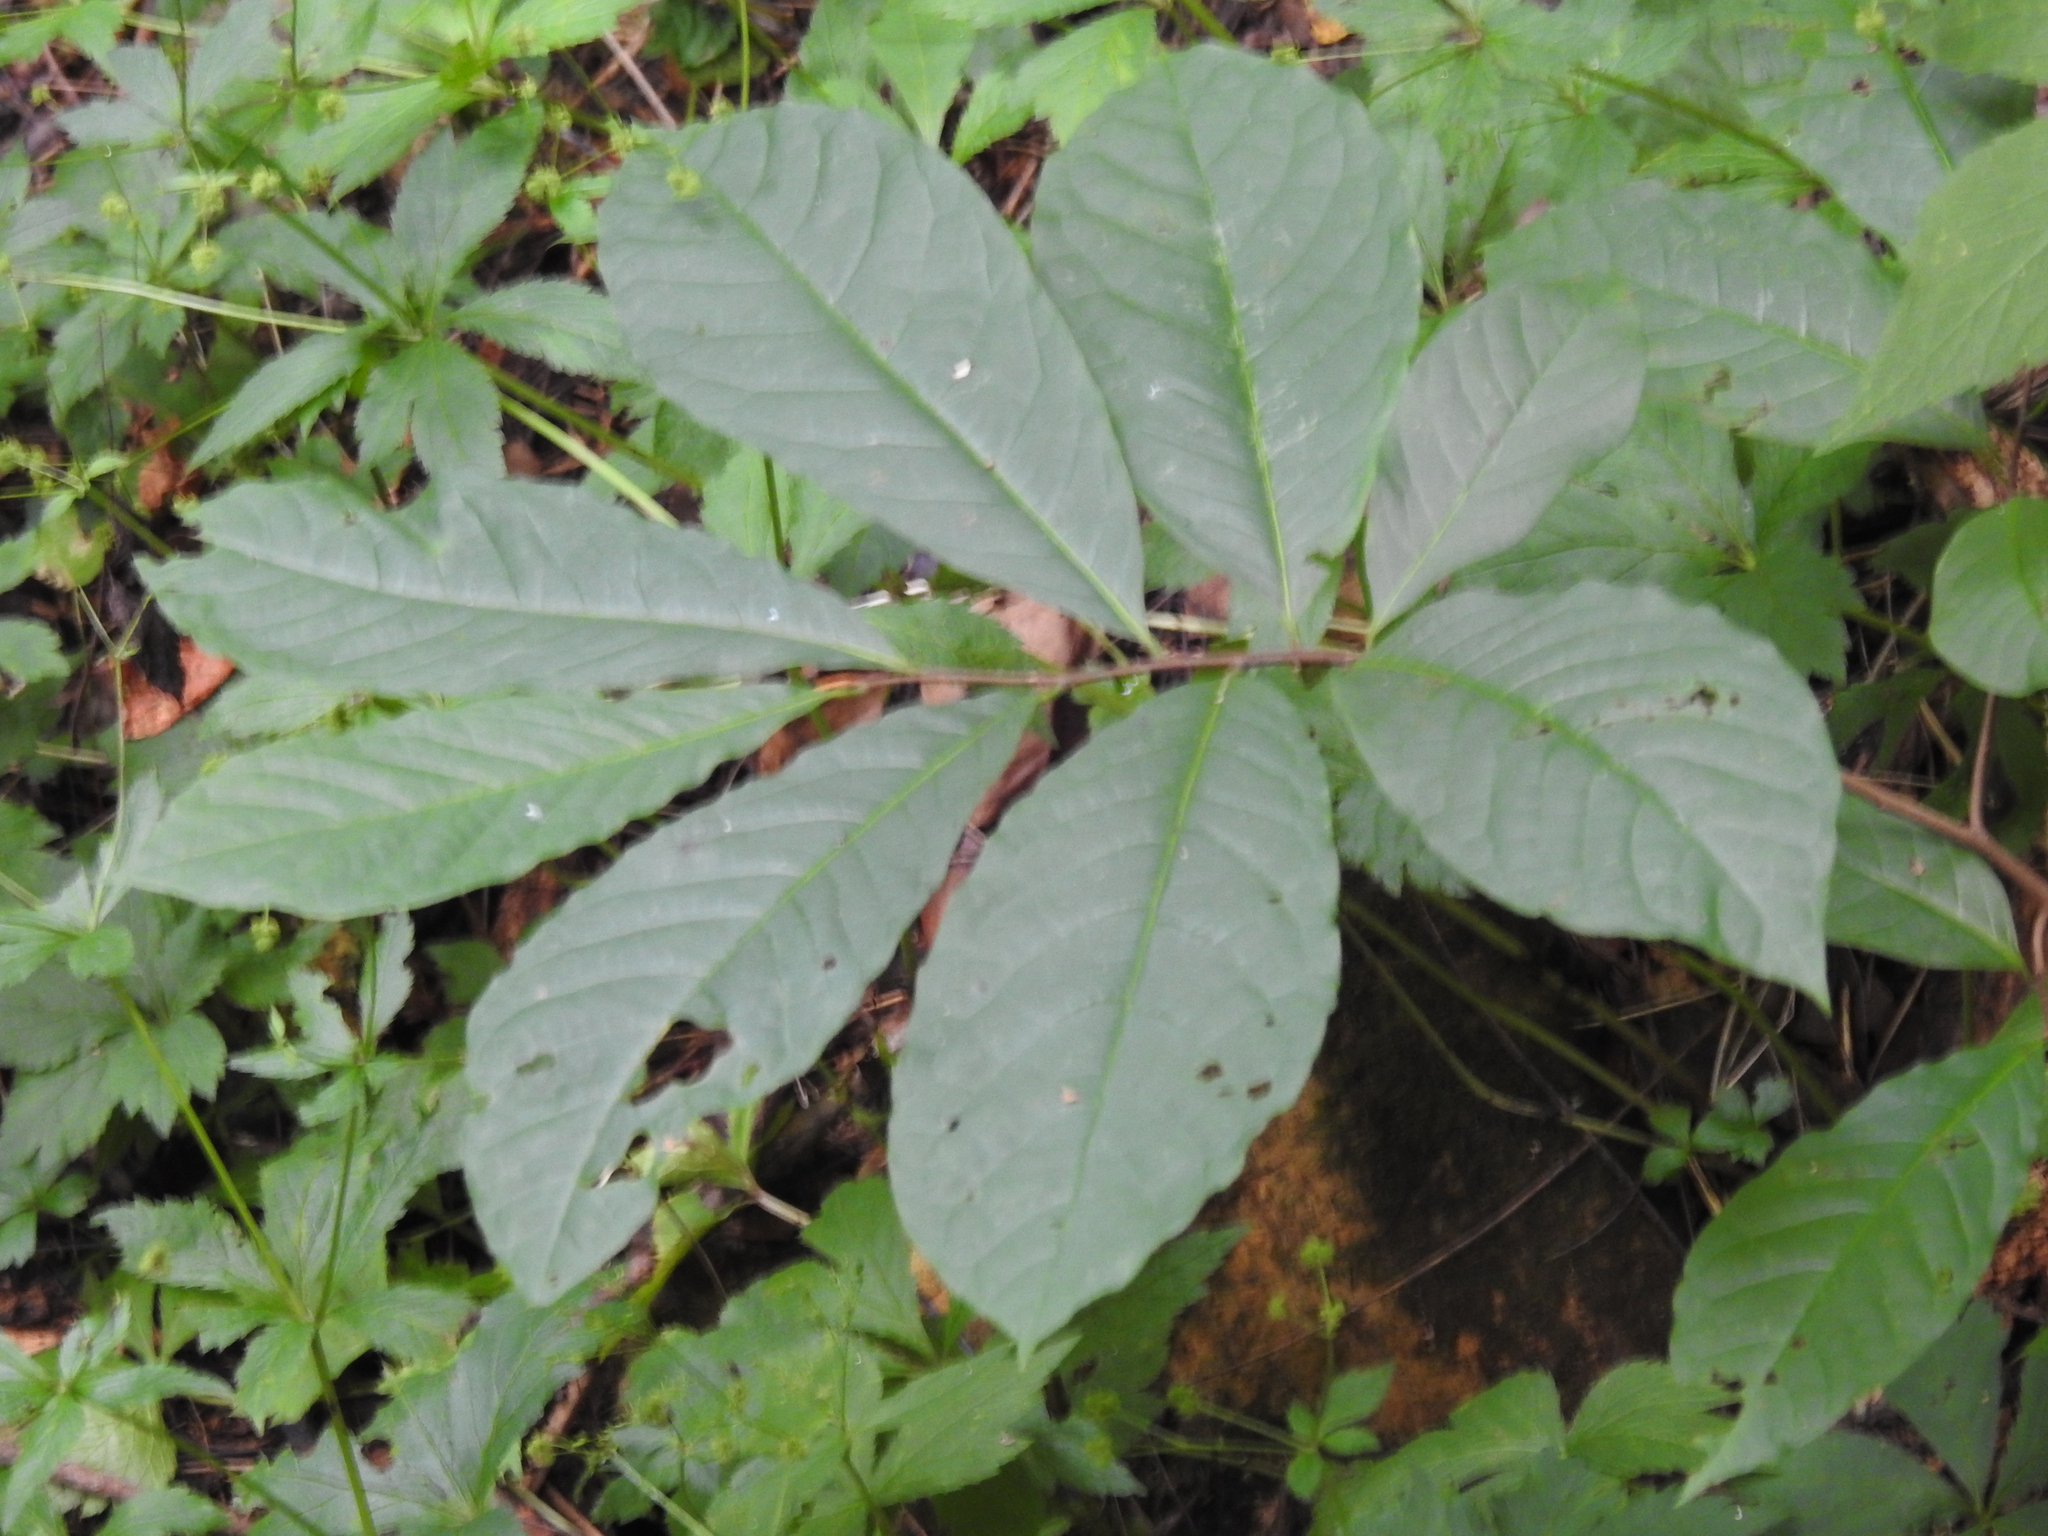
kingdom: Plantae
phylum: Tracheophyta
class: Magnoliopsida
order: Magnoliales
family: Annonaceae
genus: Asimina
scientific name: Asimina triloba
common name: Dog-banana
